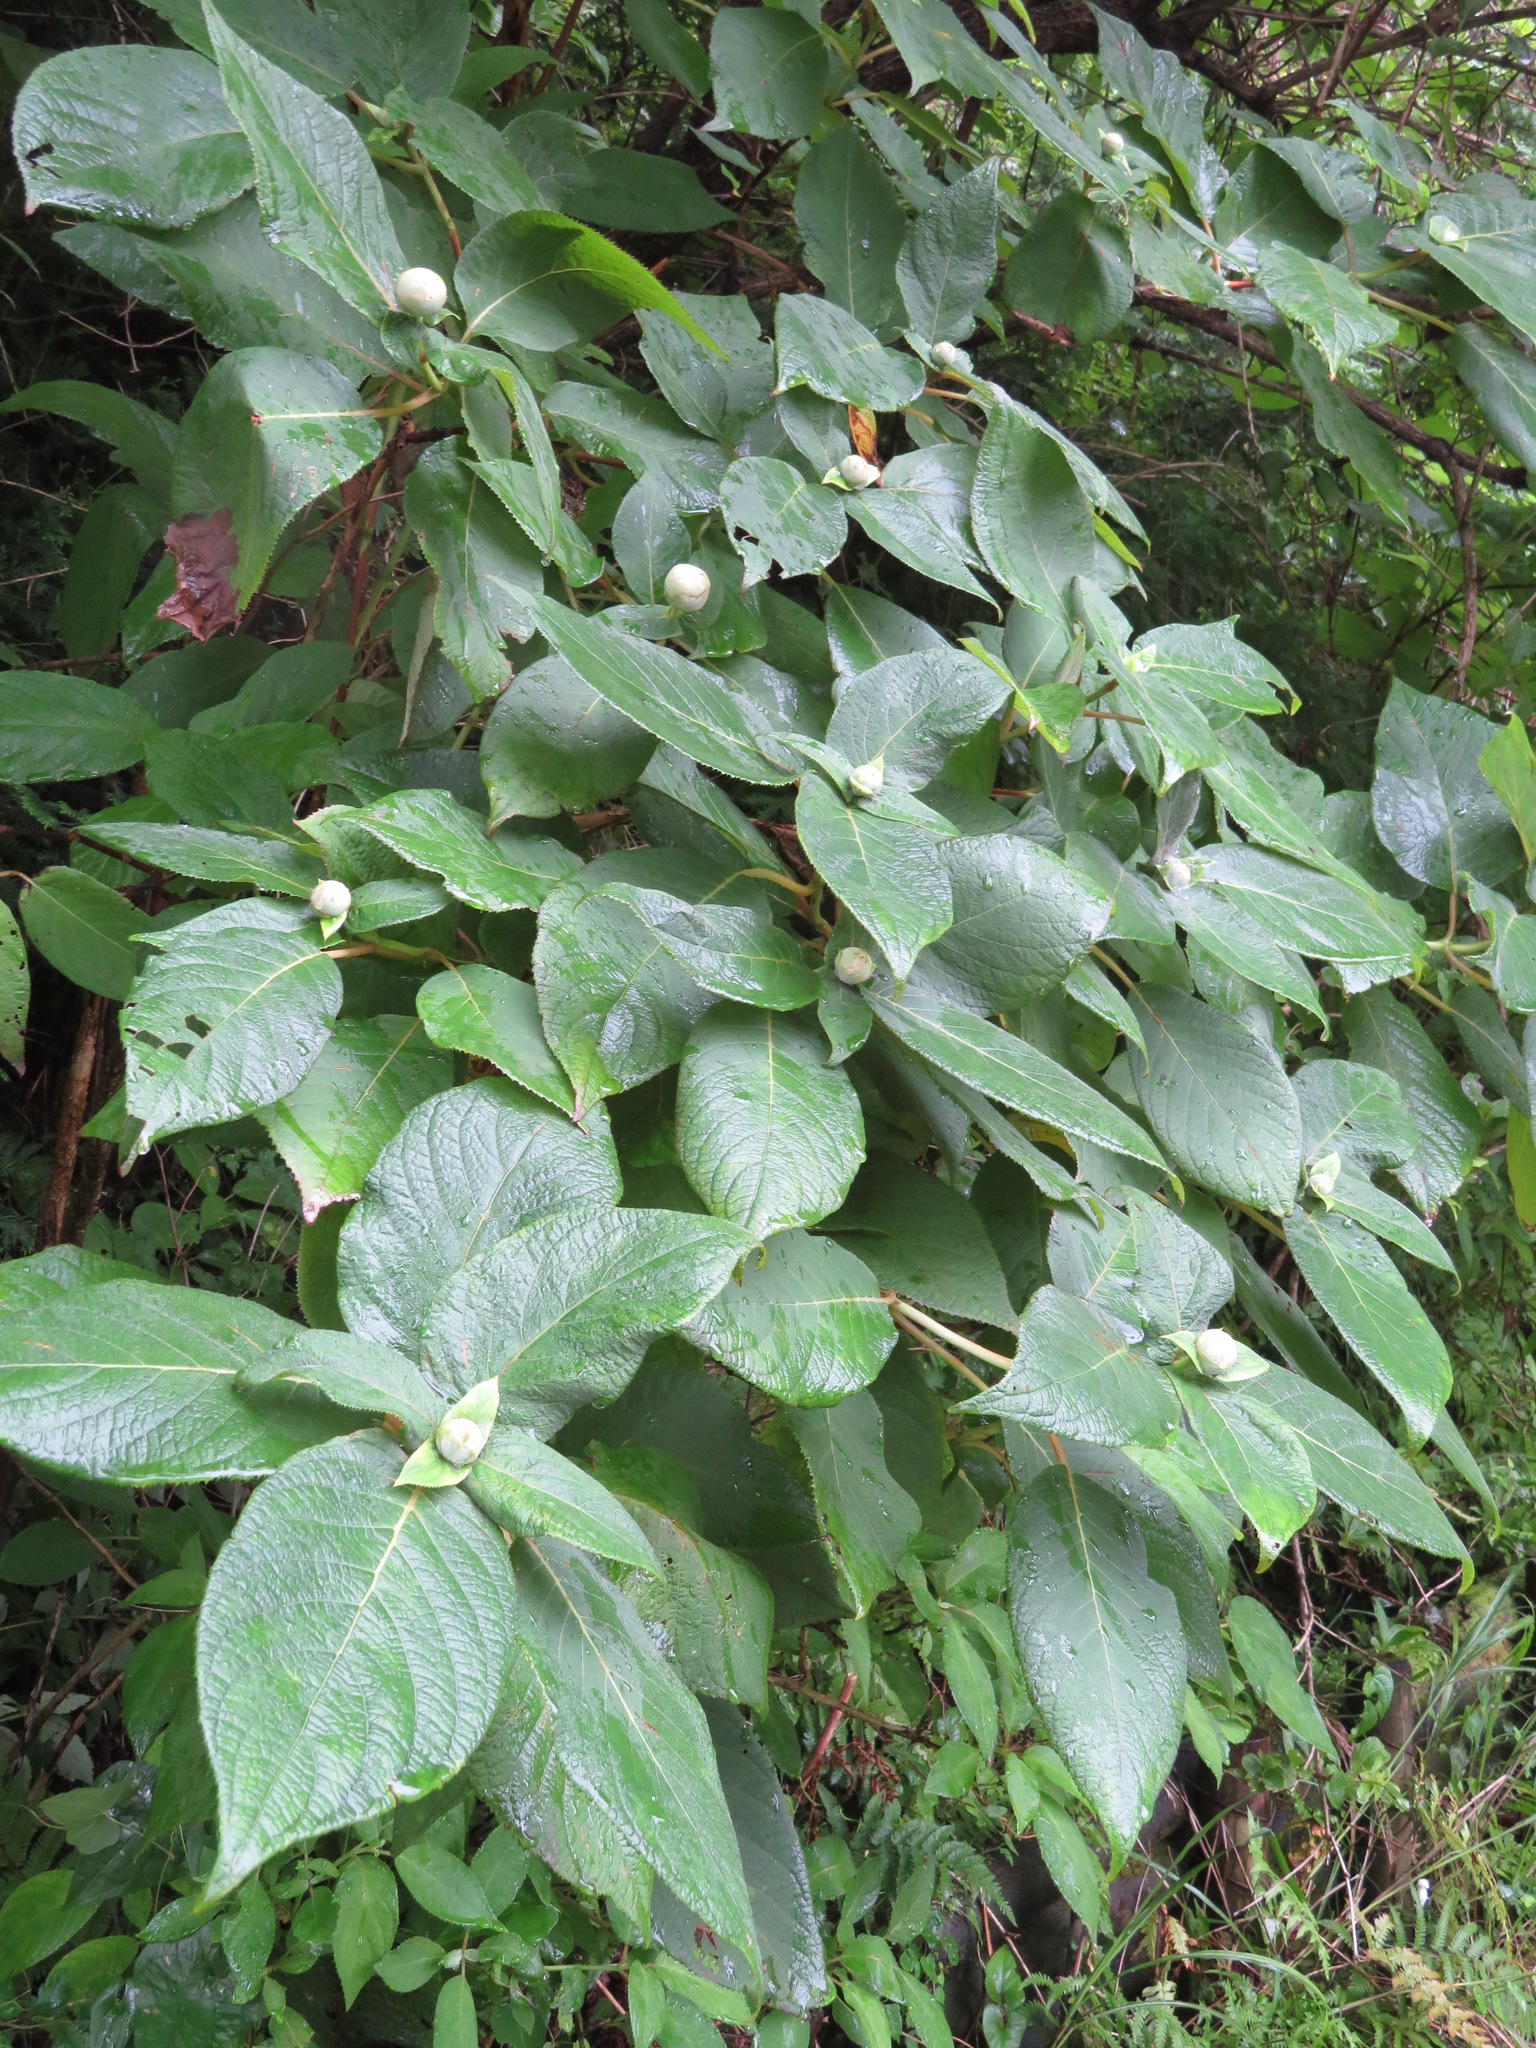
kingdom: Plantae
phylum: Tracheophyta
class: Magnoliopsida
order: Cornales
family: Hydrangeaceae
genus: Hydrangea
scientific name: Hydrangea involucrata
